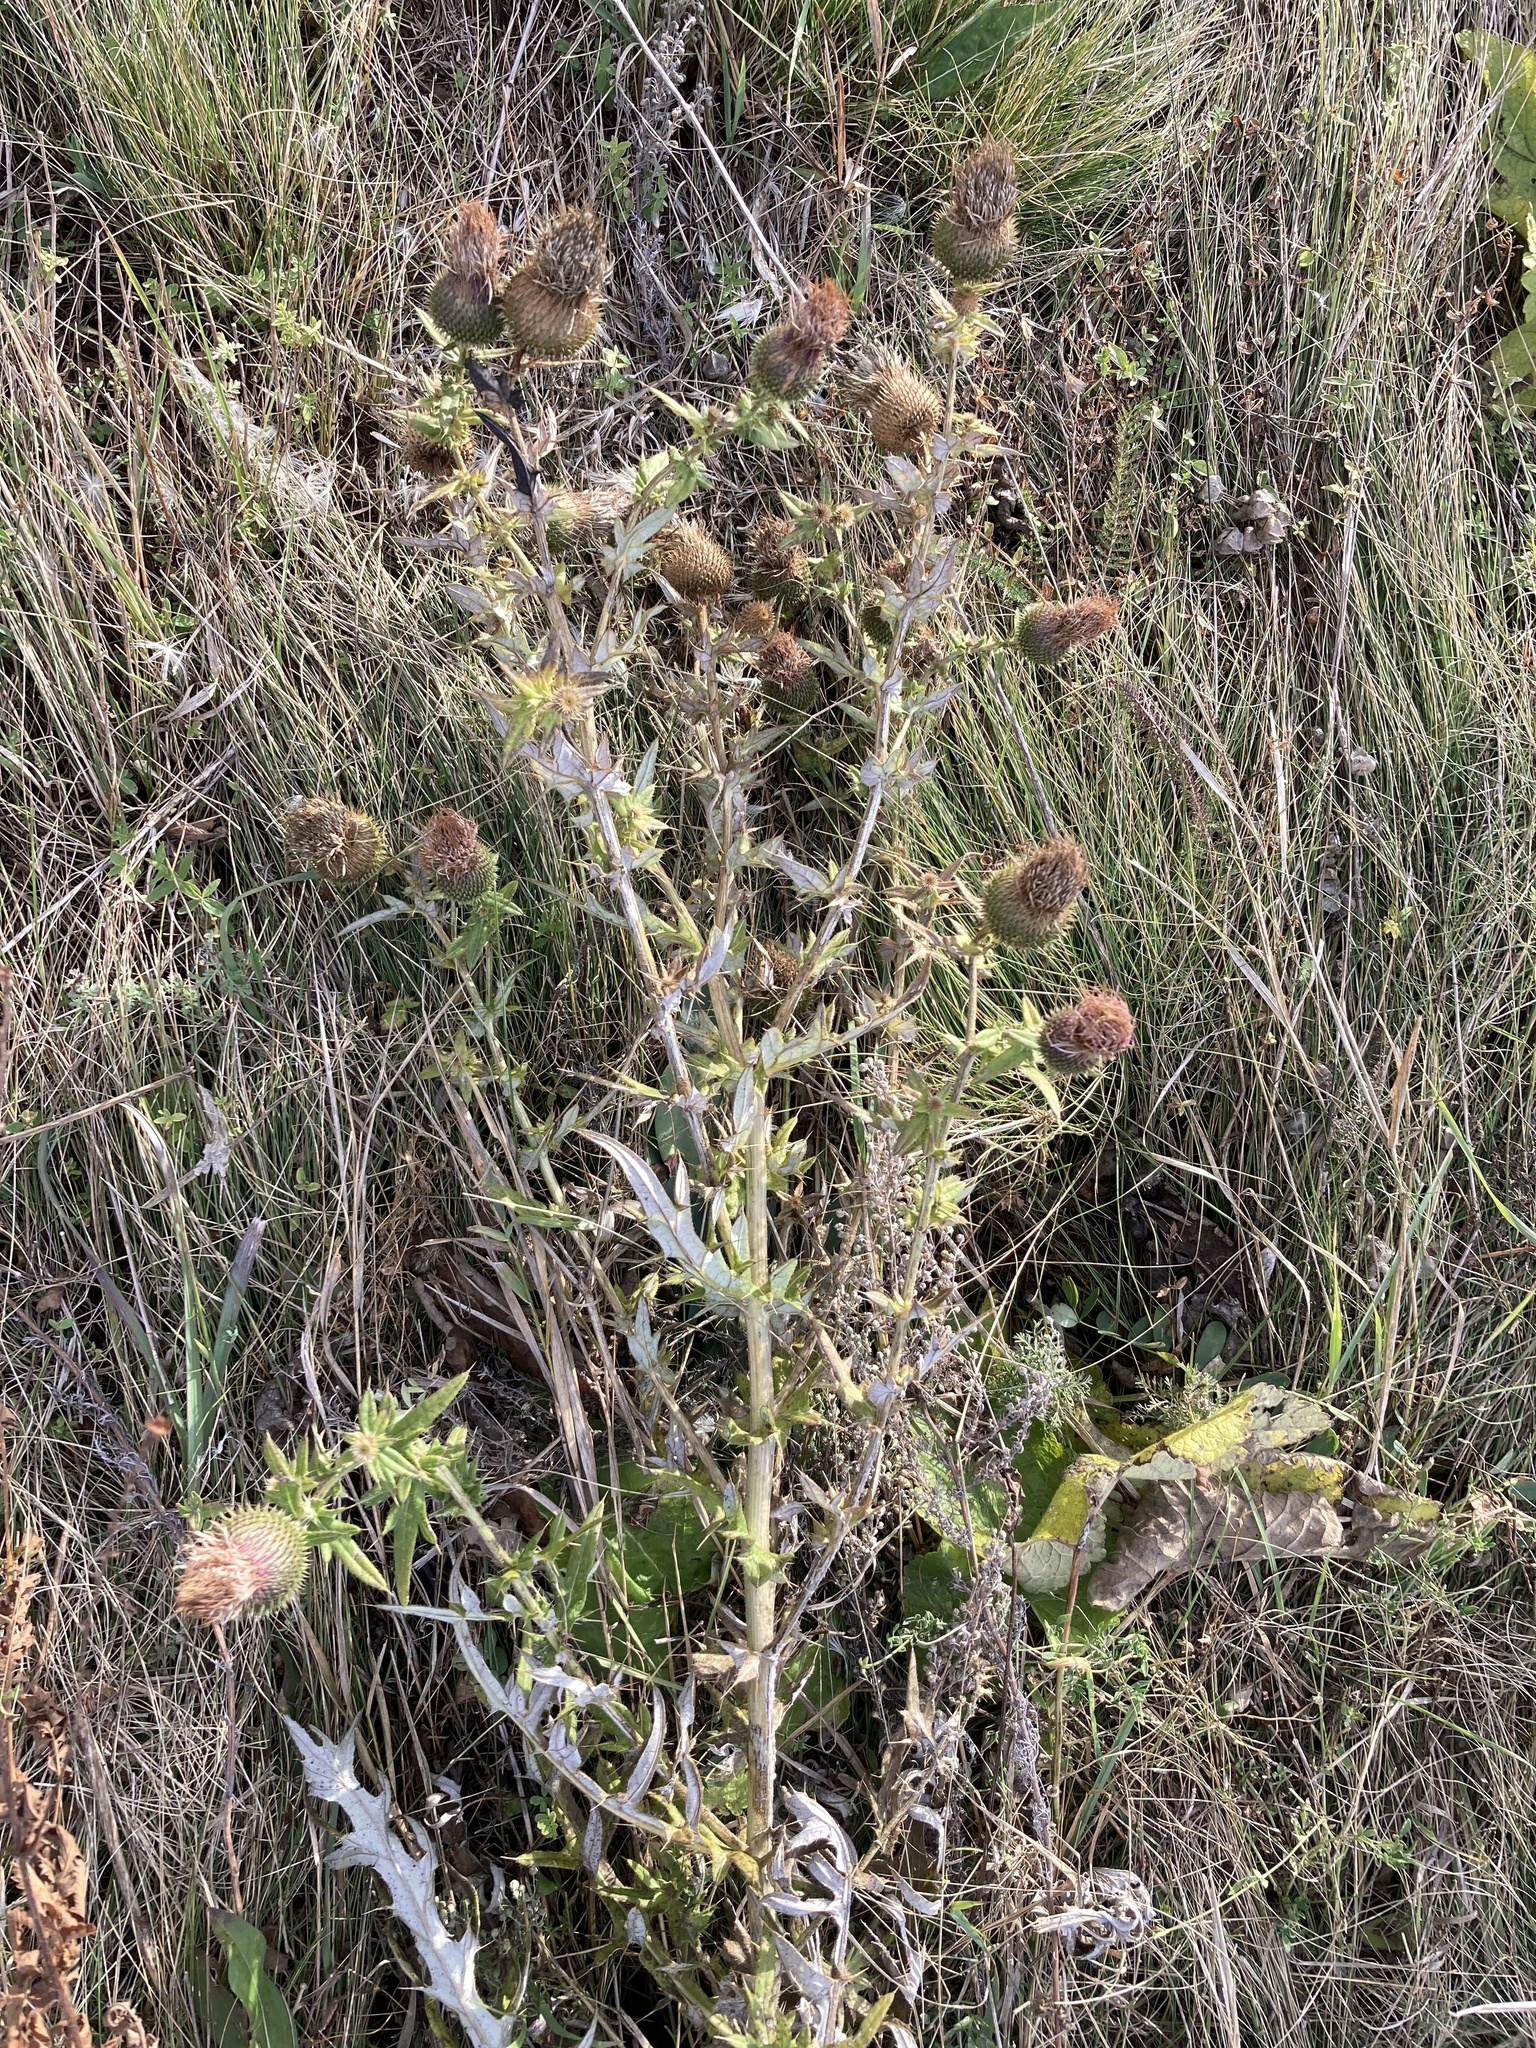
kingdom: Plantae
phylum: Tracheophyta
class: Magnoliopsida
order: Asterales
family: Asteraceae
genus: Cirsium
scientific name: Cirsium serrulatum
